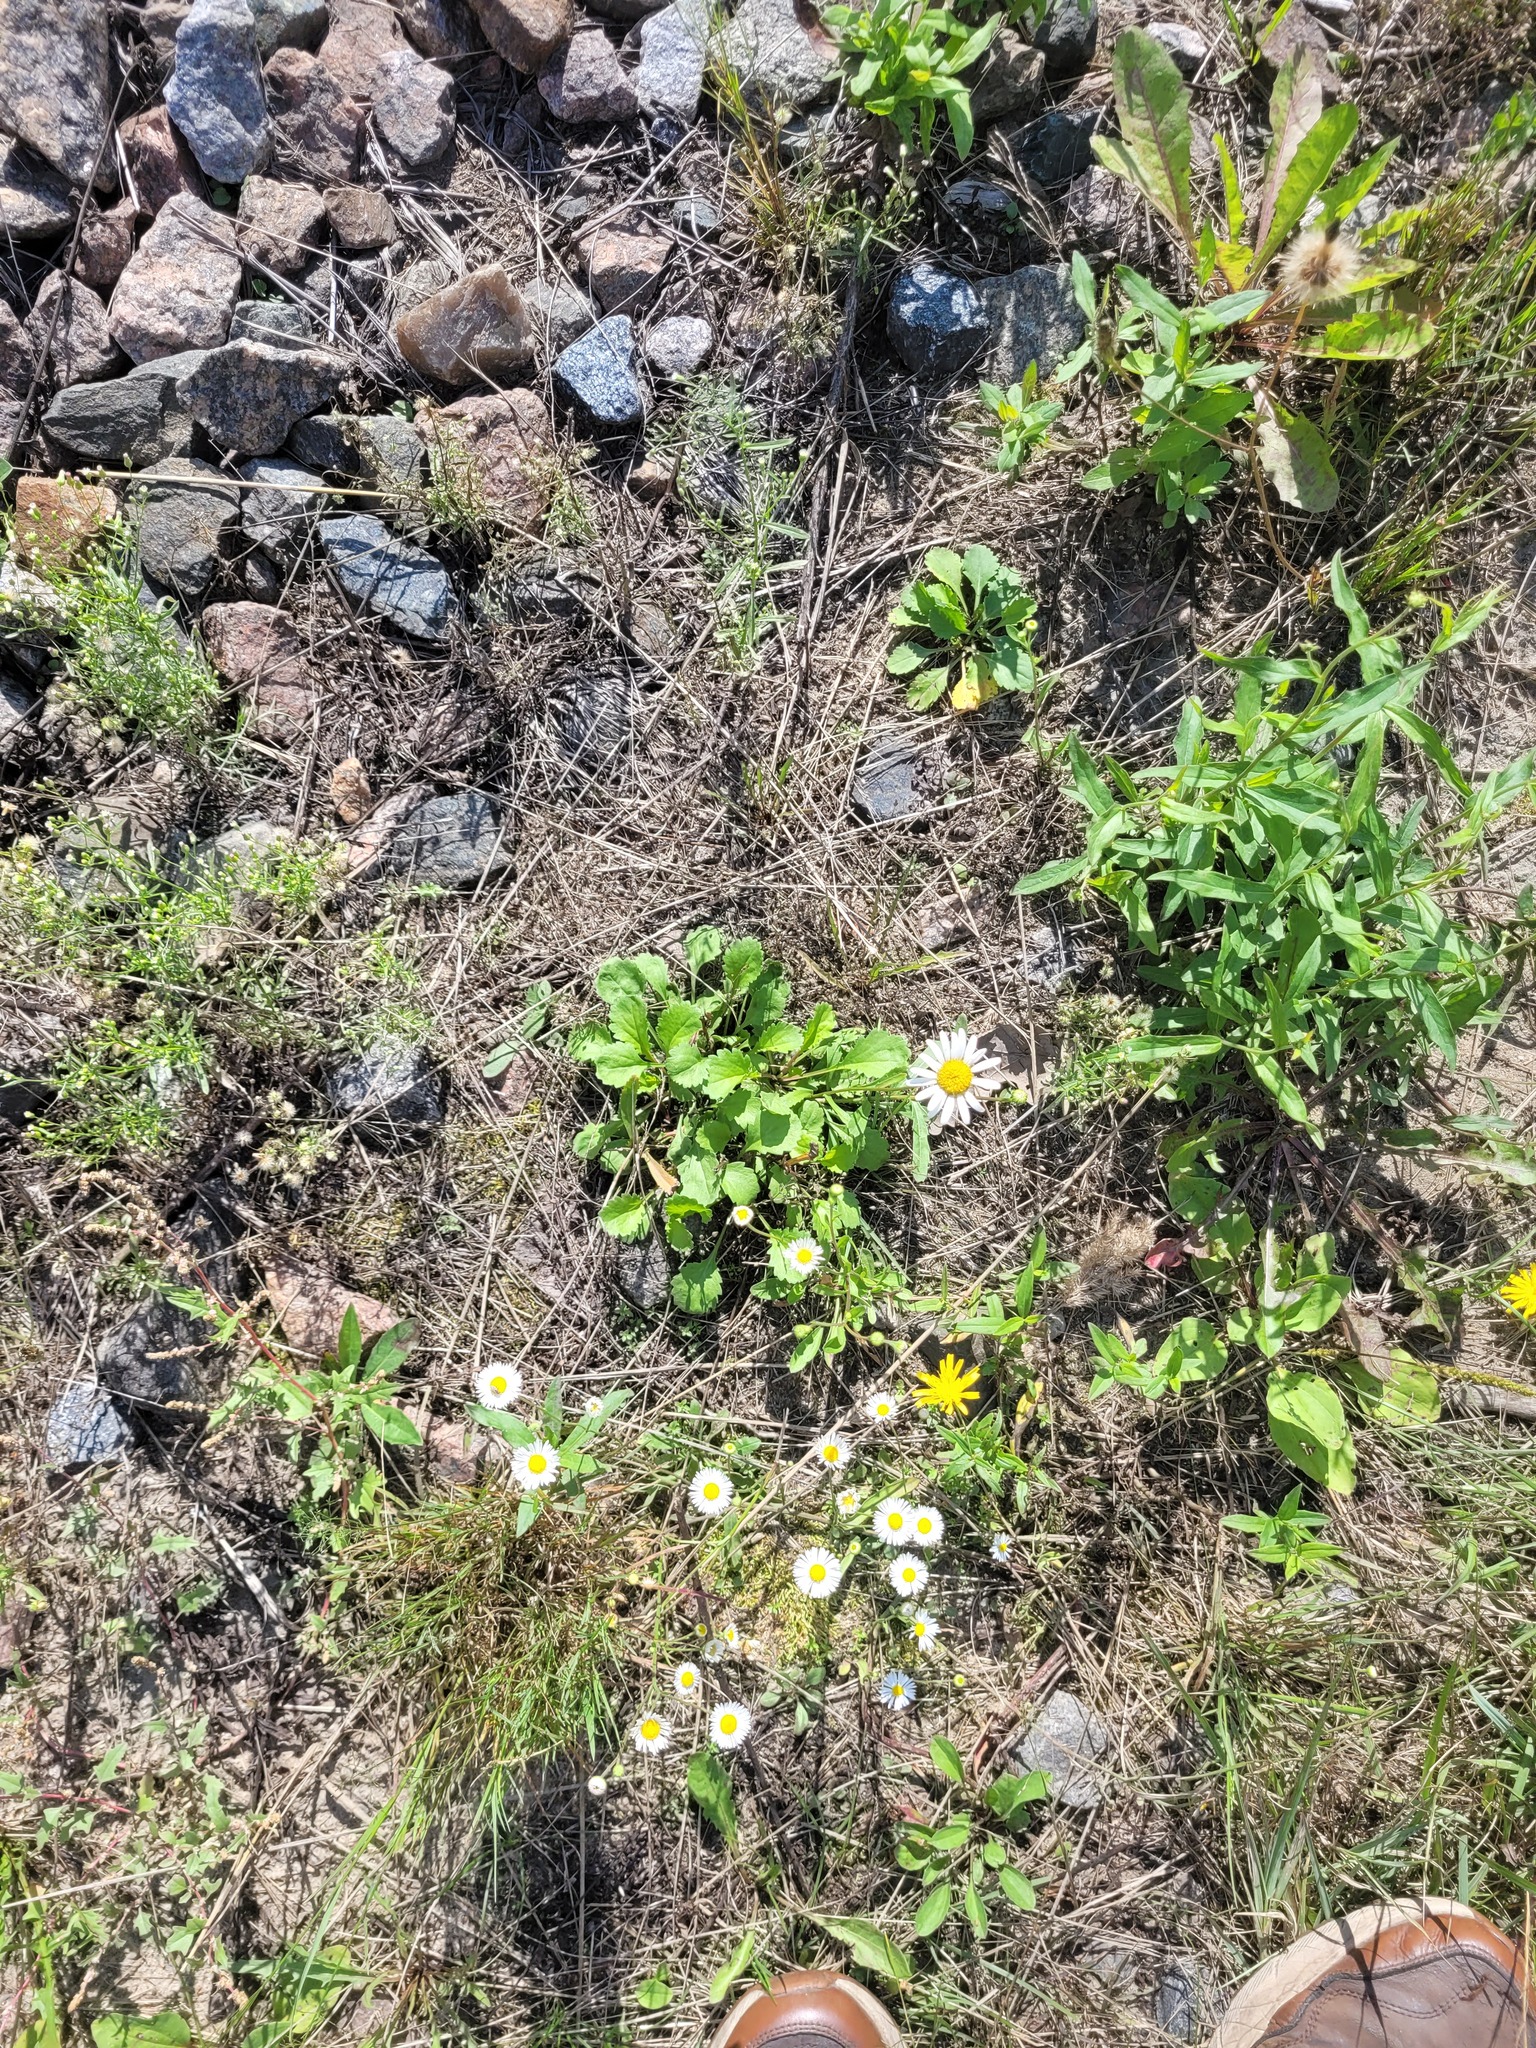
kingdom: Plantae
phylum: Tracheophyta
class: Magnoliopsida
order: Asterales
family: Asteraceae
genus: Leucanthemum
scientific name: Leucanthemum vulgare
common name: Oxeye daisy
